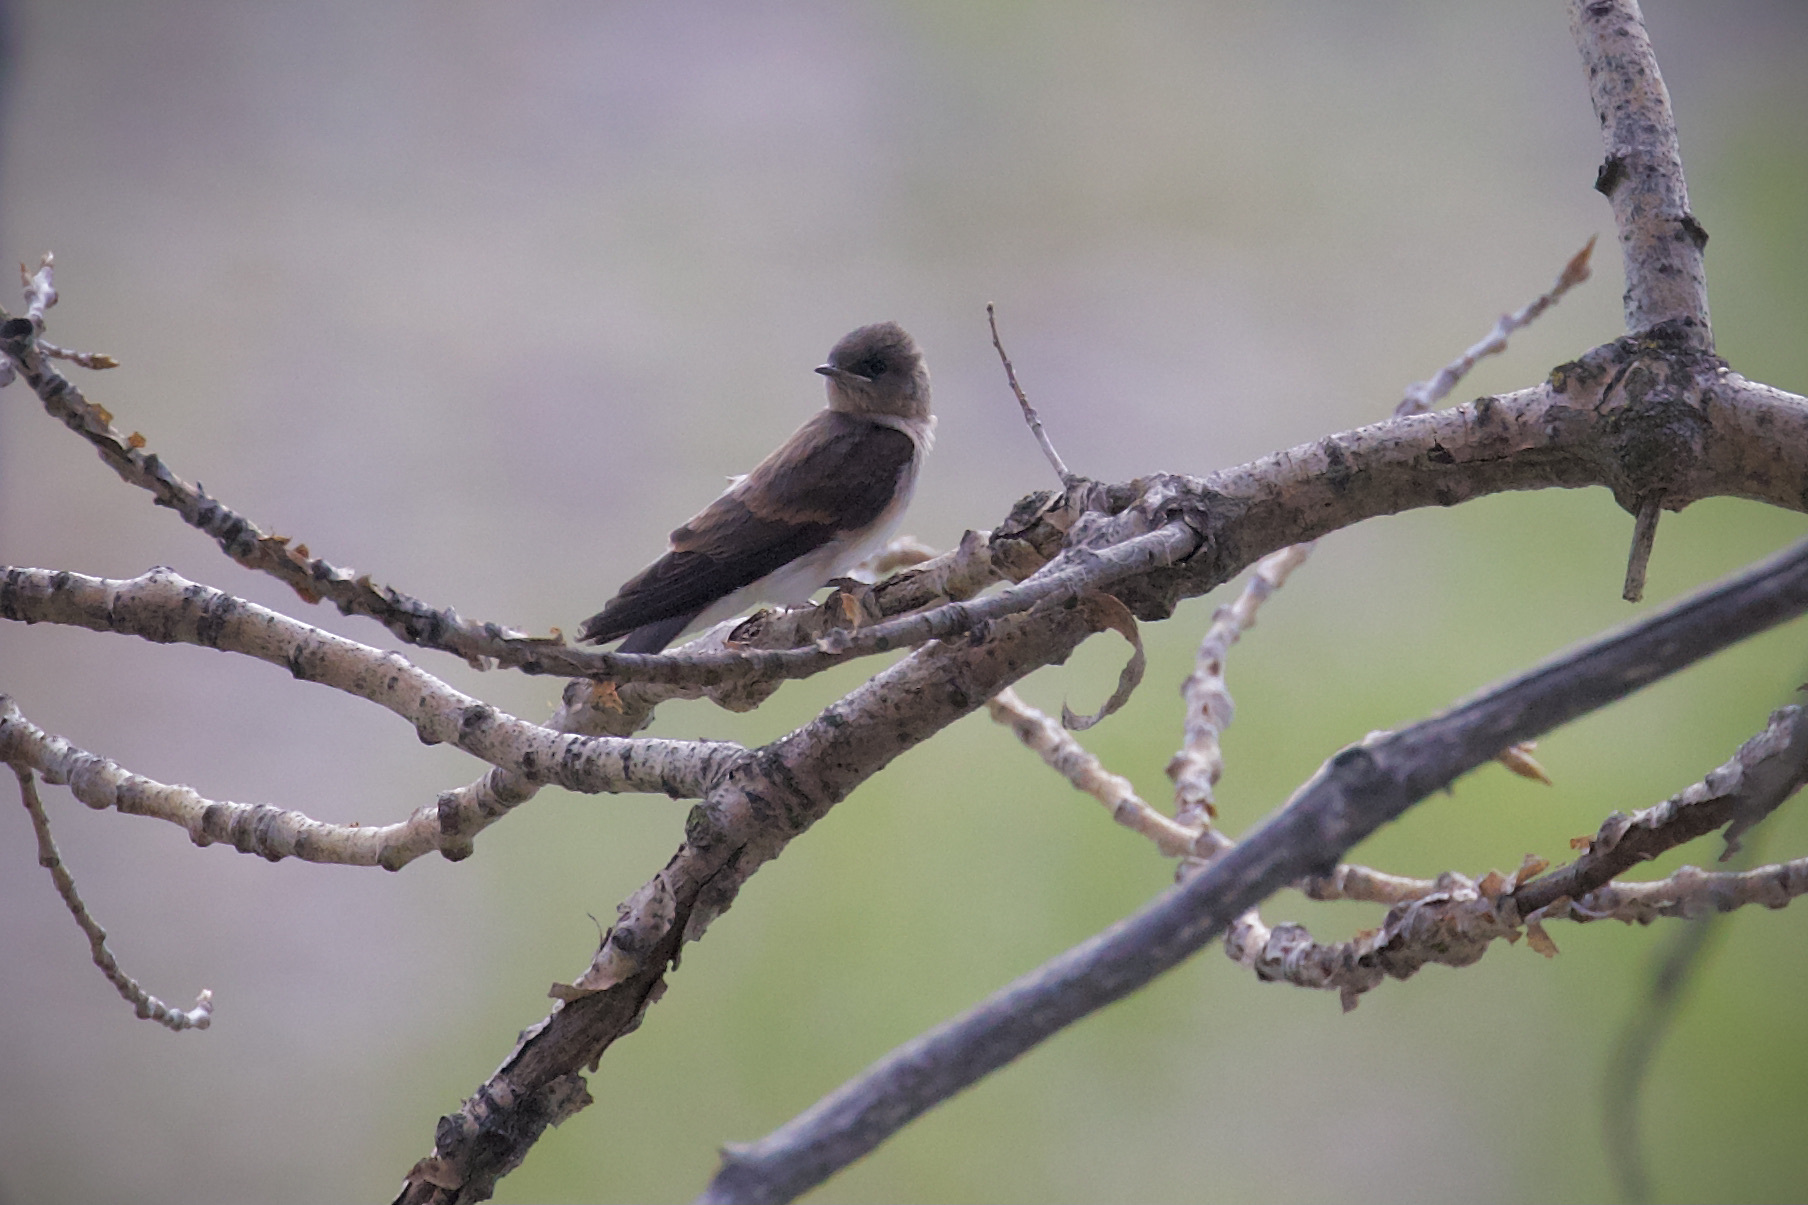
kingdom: Animalia
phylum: Chordata
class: Aves
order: Passeriformes
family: Hirundinidae
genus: Stelgidopteryx
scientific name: Stelgidopteryx serripennis
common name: Northern rough-winged swallow
